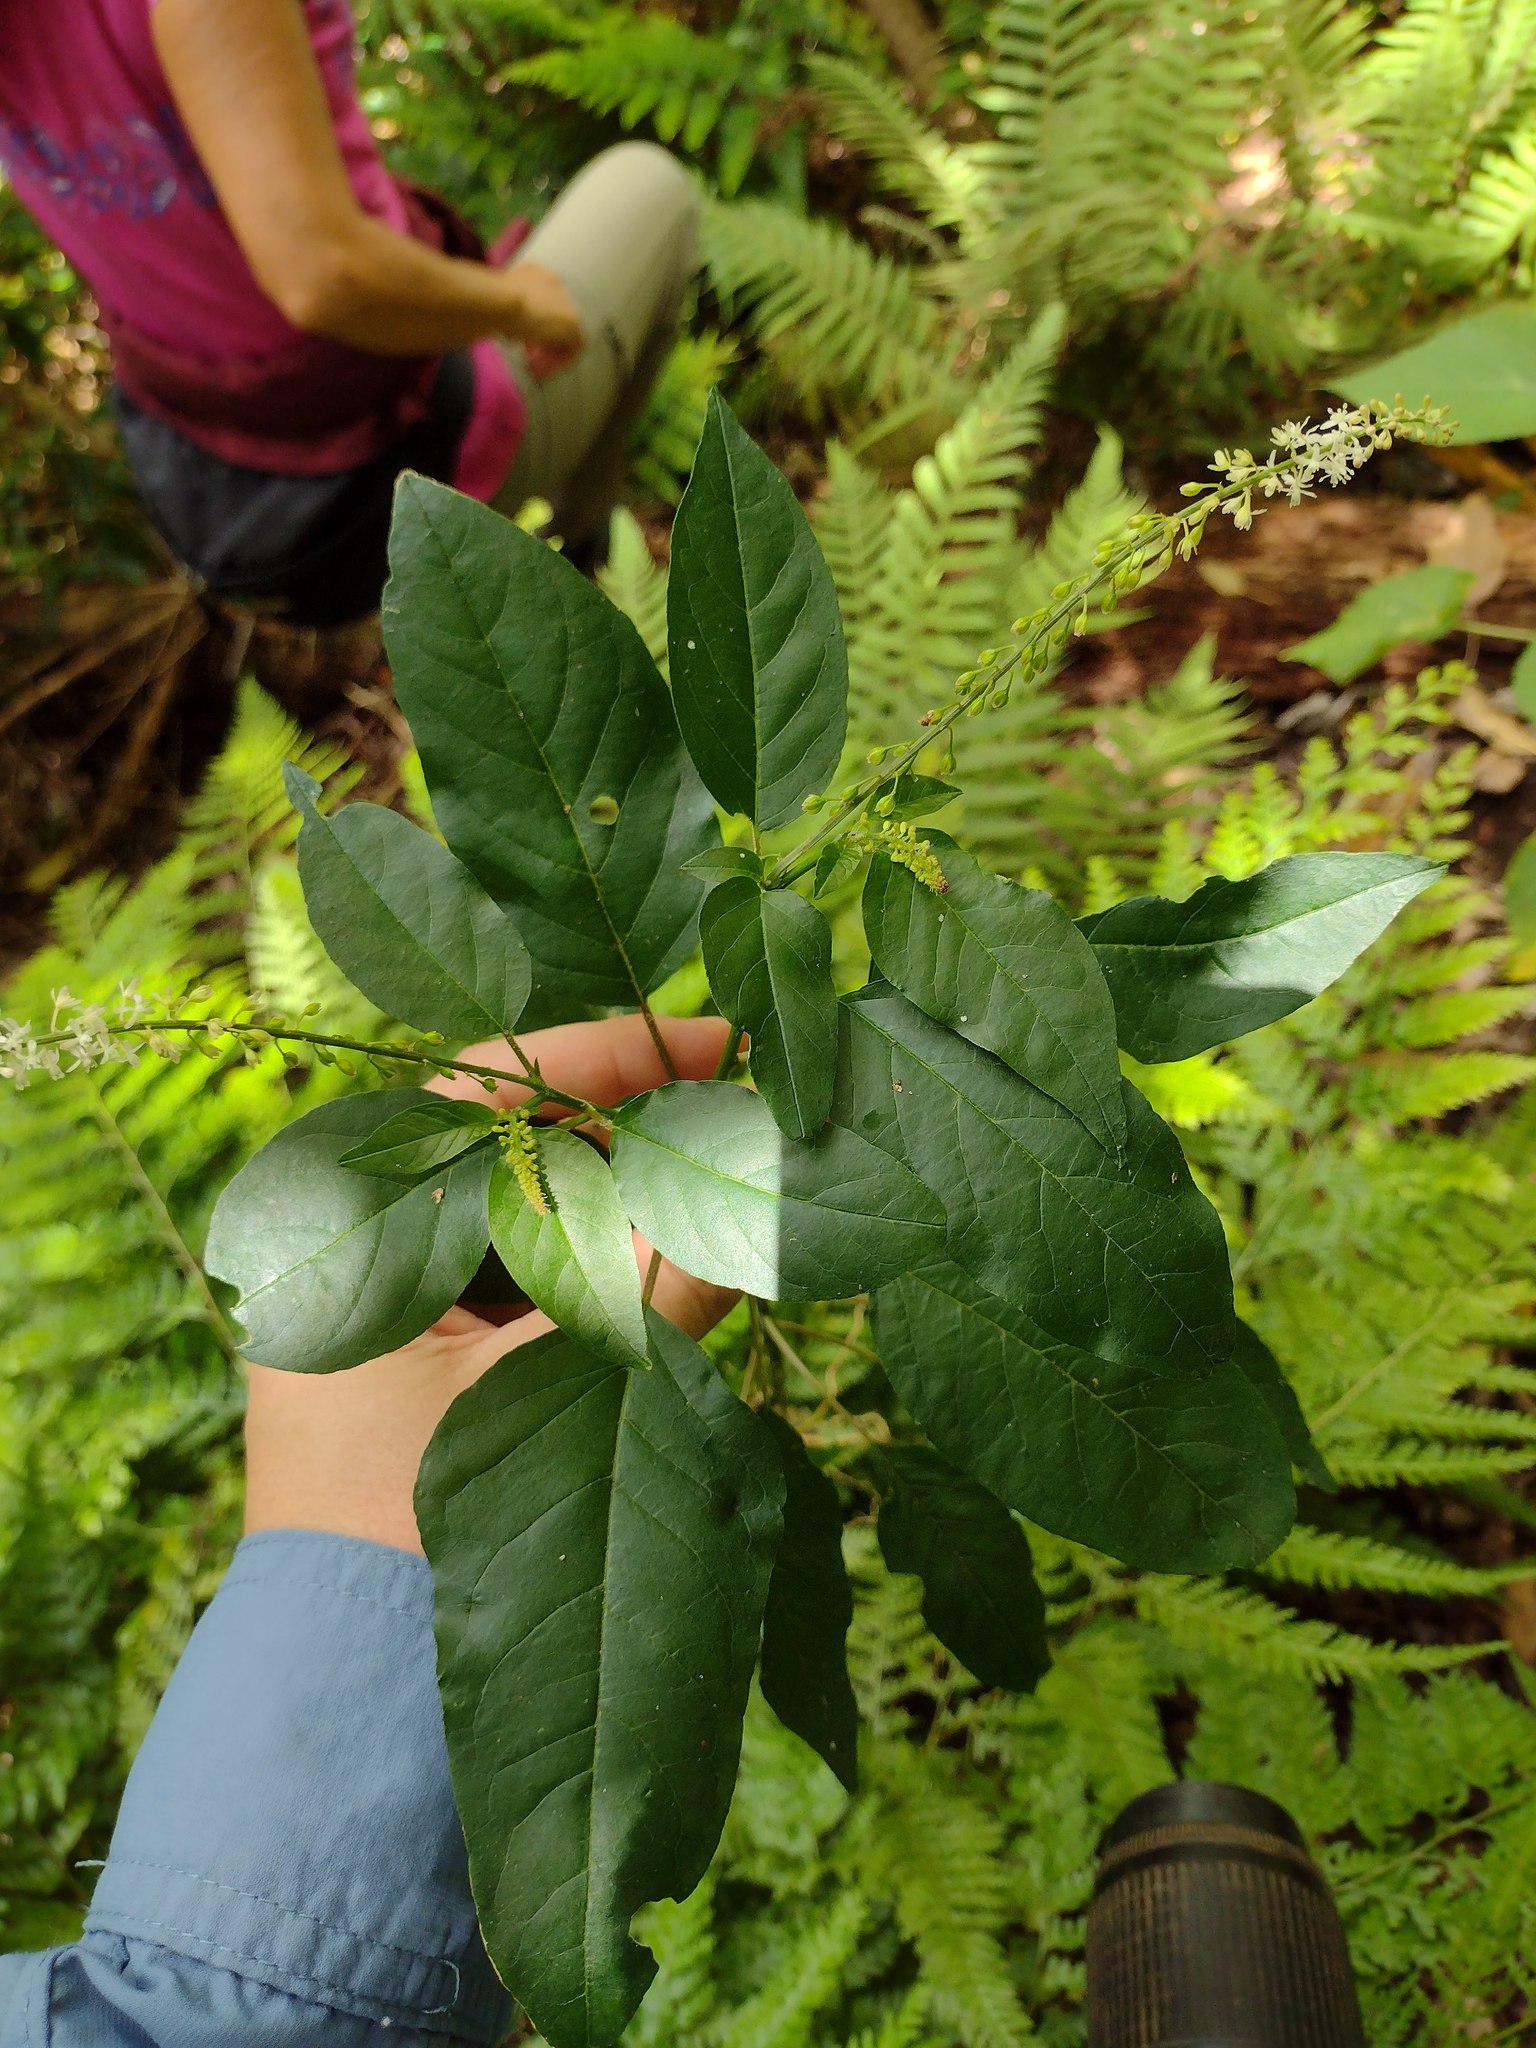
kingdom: Plantae
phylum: Tracheophyta
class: Magnoliopsida
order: Caryophyllales
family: Phytolaccaceae
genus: Rivina
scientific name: Rivina humilis
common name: Rougeplant
